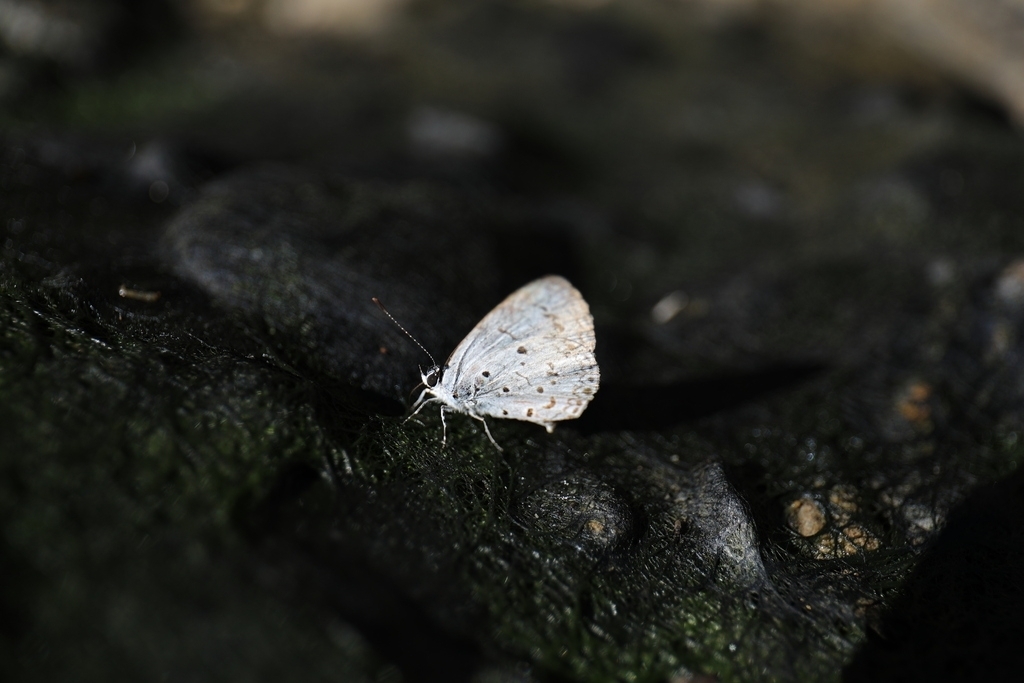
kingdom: Animalia
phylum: Arthropoda
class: Insecta
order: Lepidoptera
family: Lycaenidae
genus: Acytolepis
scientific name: Acytolepis puspa
